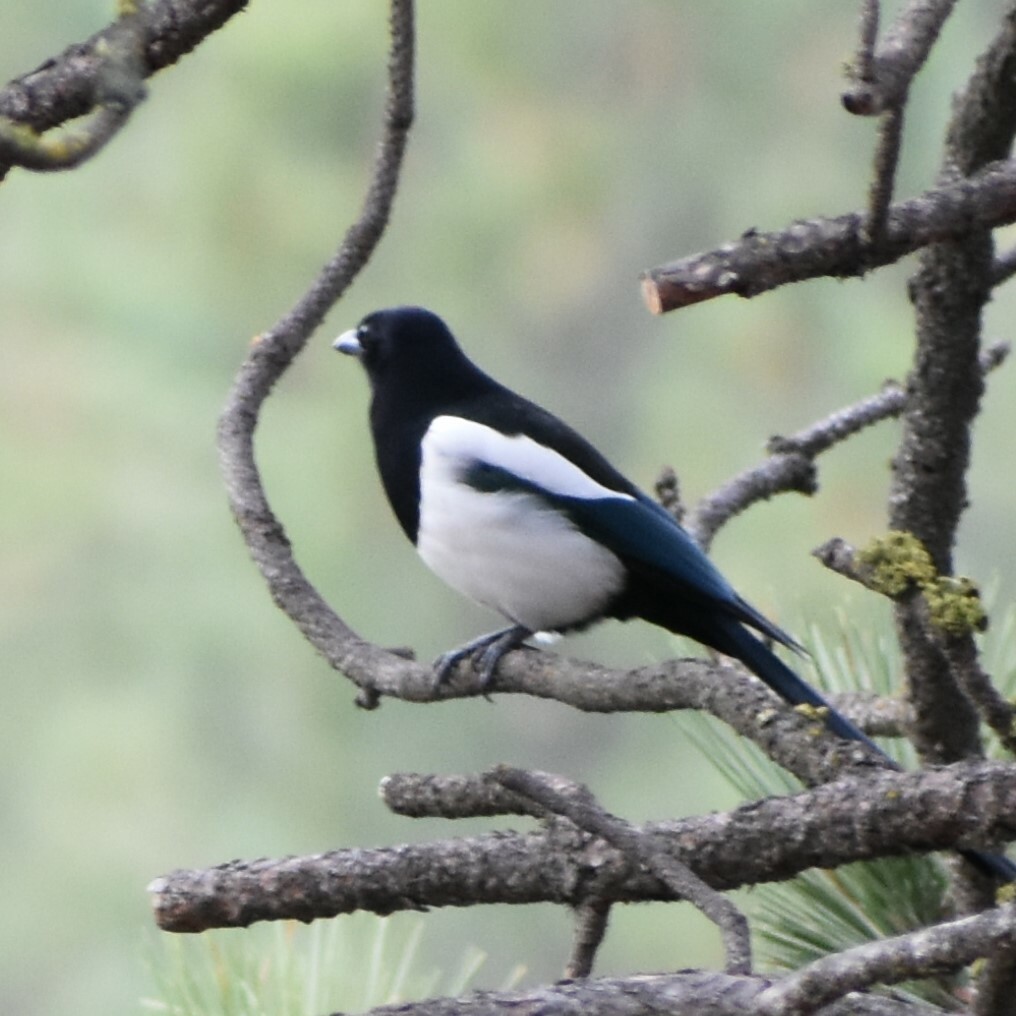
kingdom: Animalia
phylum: Chordata
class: Aves
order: Passeriformes
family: Corvidae
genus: Pica
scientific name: Pica hudsonia
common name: Black-billed magpie
